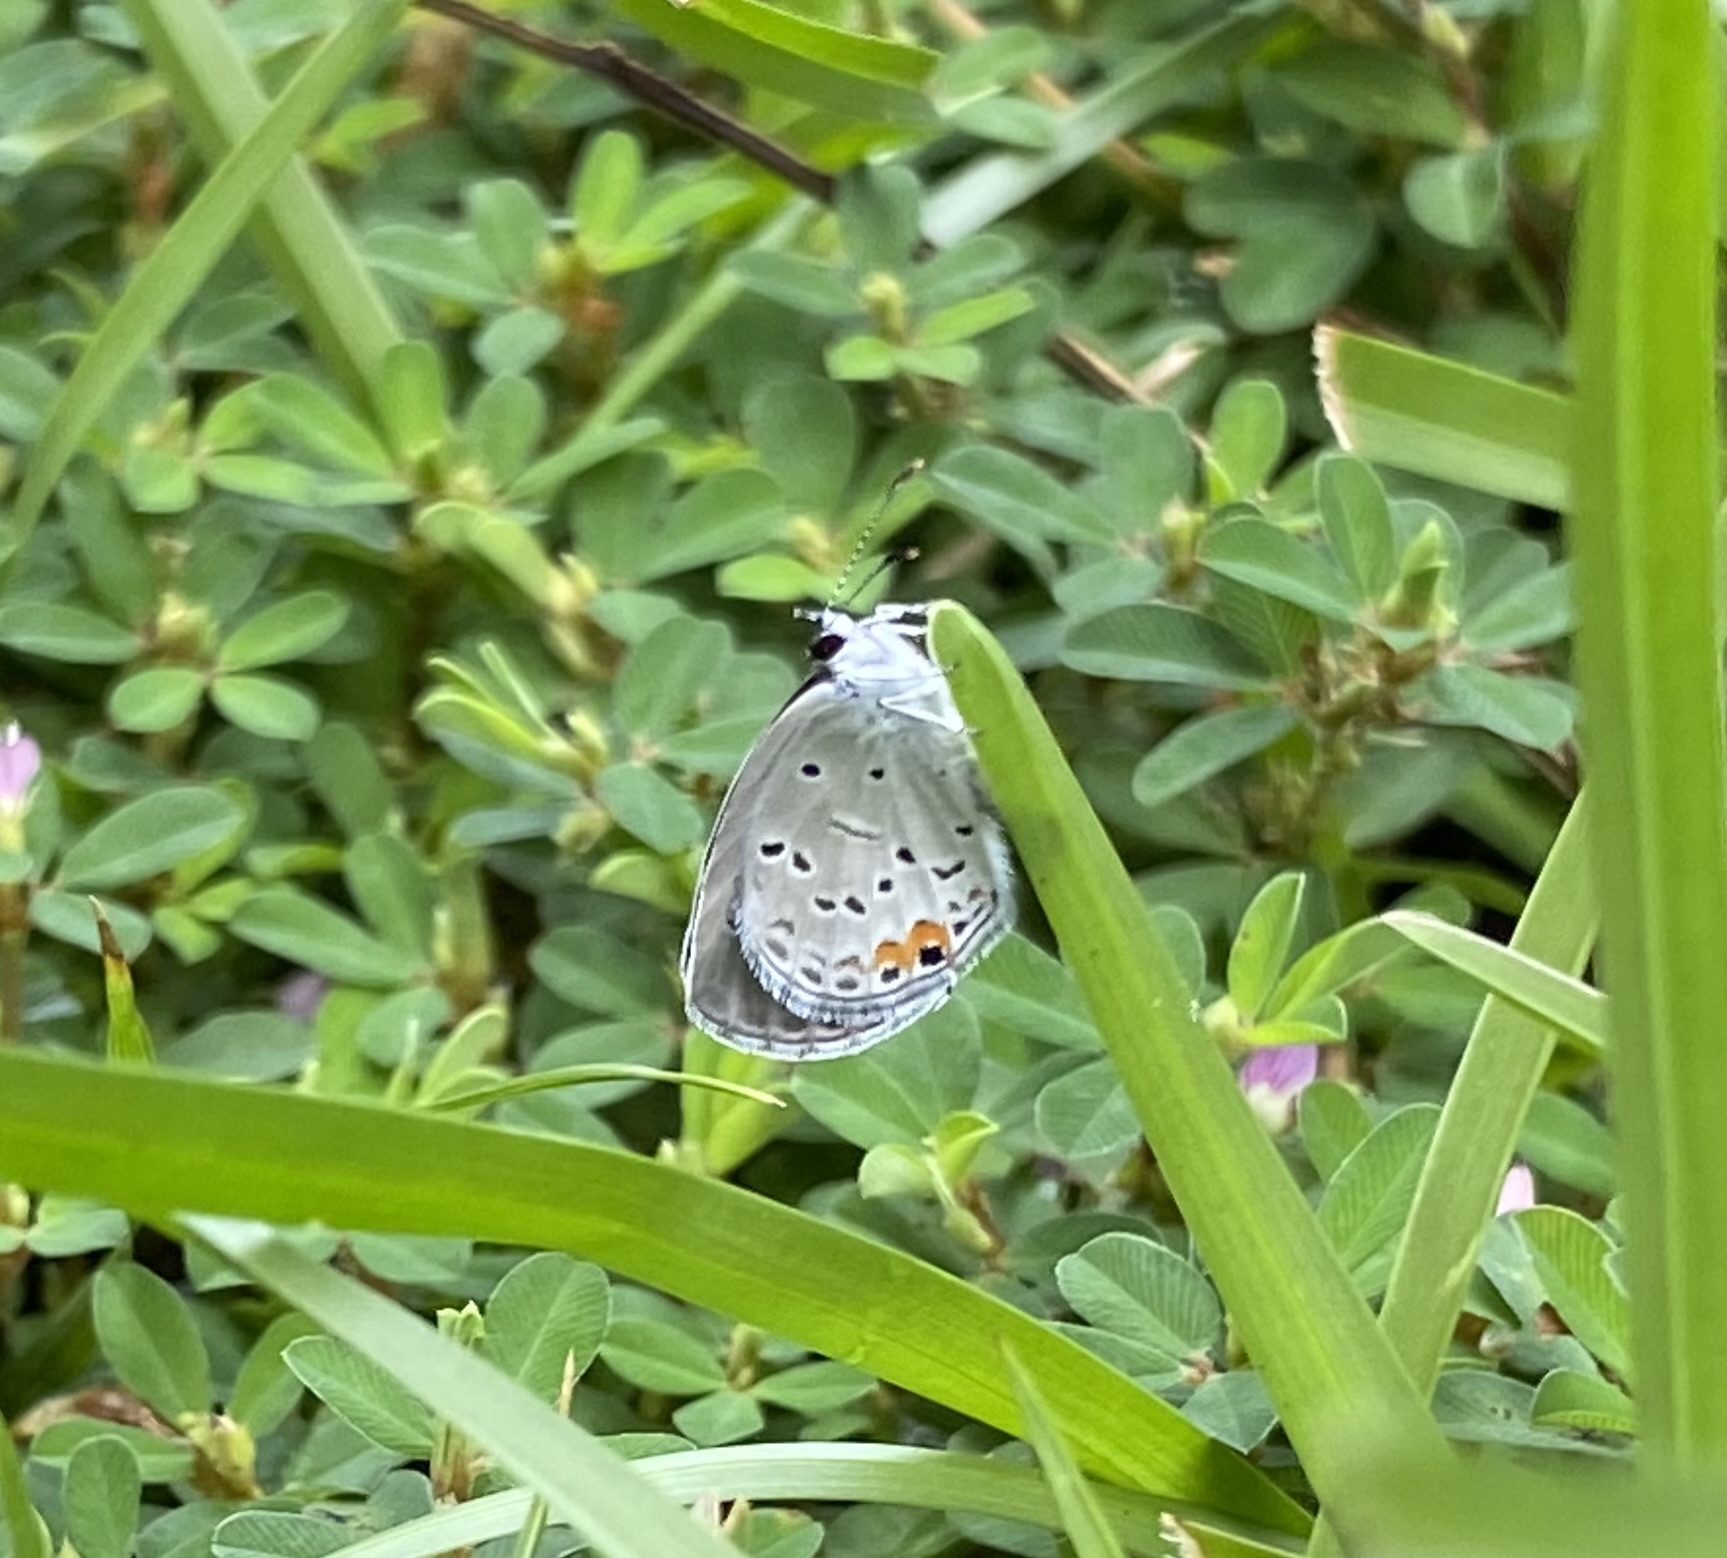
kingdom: Animalia
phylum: Arthropoda
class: Insecta
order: Lepidoptera
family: Lycaenidae
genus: Elkalyce
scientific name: Elkalyce comyntas
